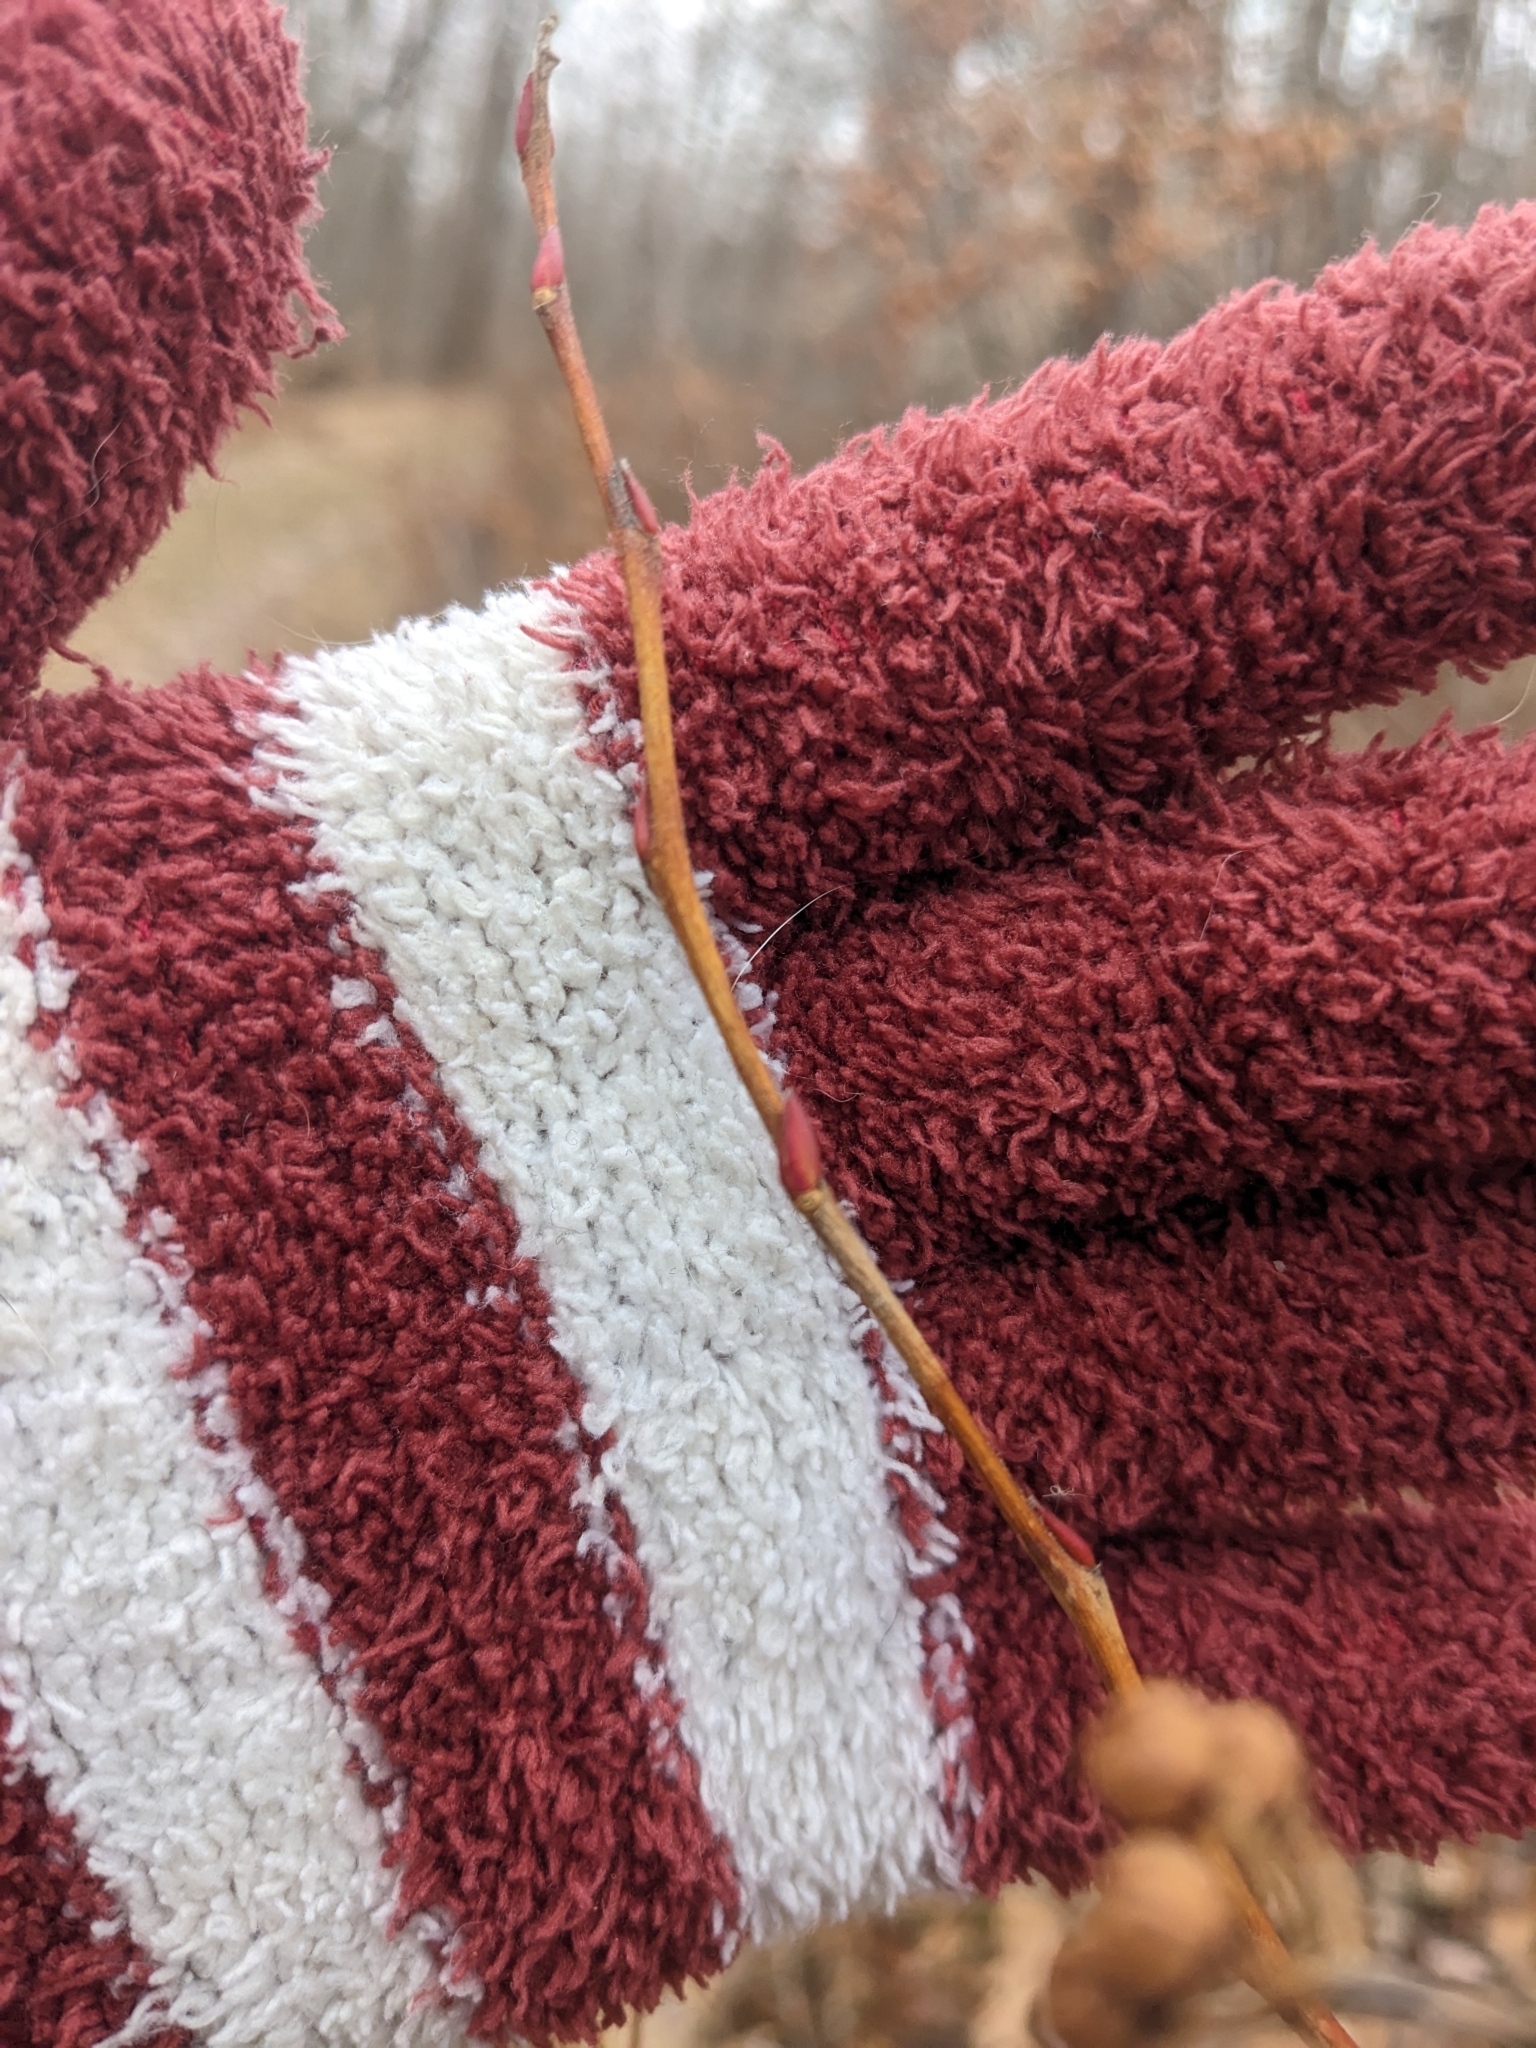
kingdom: Plantae
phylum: Tracheophyta
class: Magnoliopsida
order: Ericales
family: Ericaceae
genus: Lyonia
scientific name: Lyonia ligustrina
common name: Maleberry
